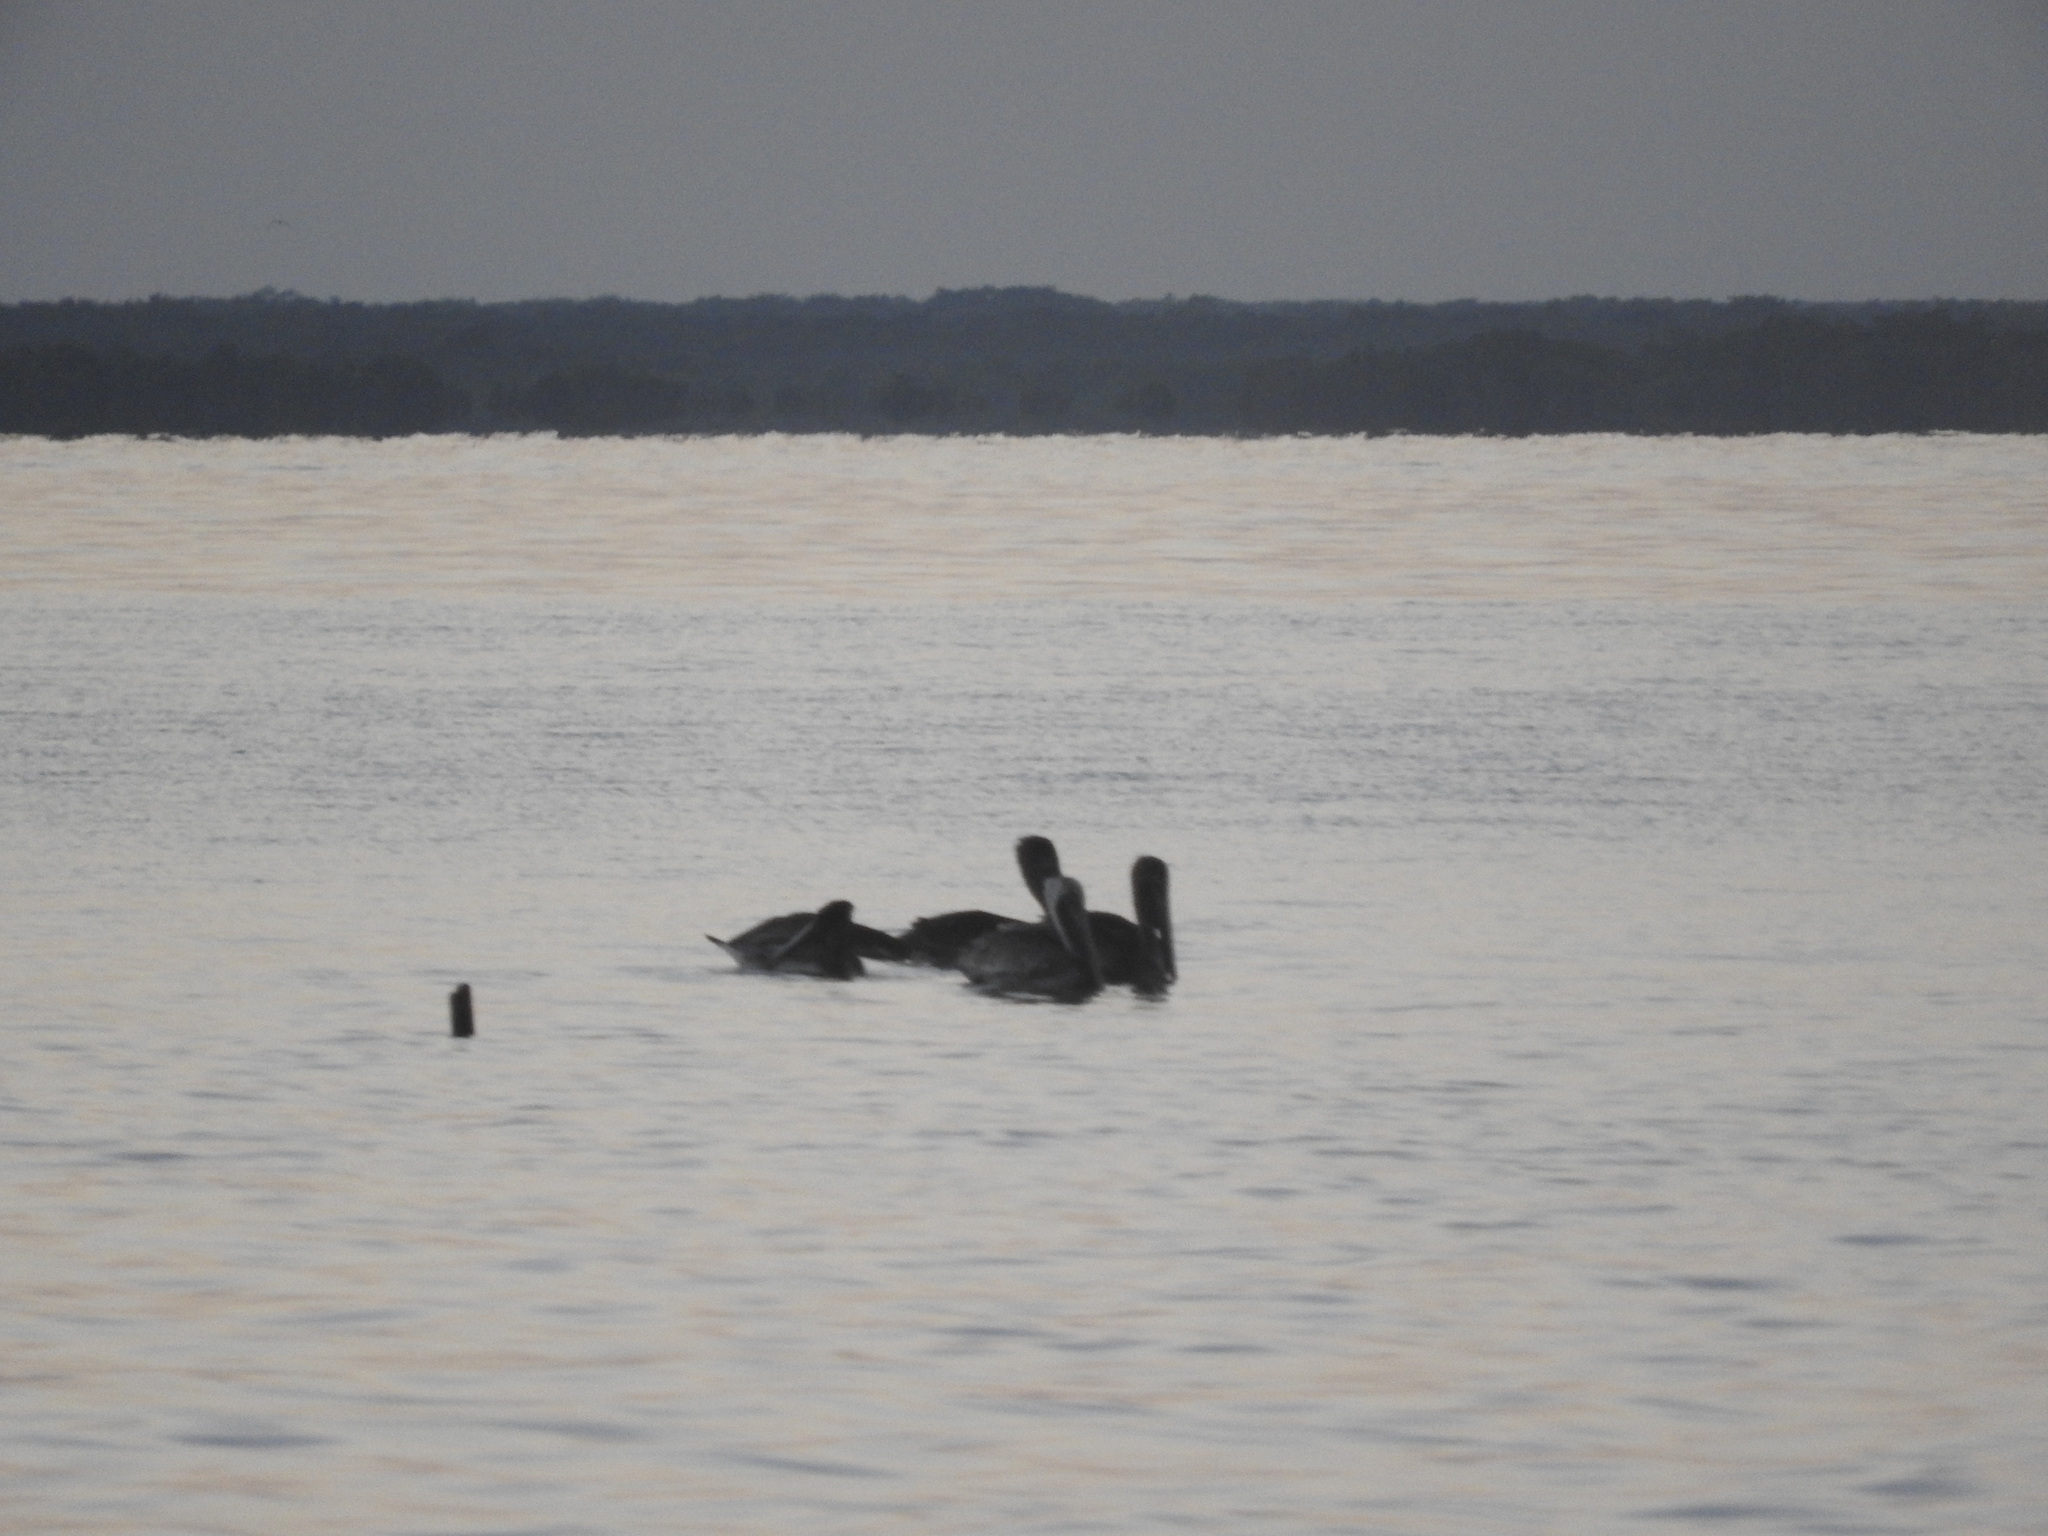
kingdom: Animalia
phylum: Chordata
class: Aves
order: Pelecaniformes
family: Pelecanidae
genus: Pelecanus
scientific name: Pelecanus occidentalis
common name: Brown pelican
